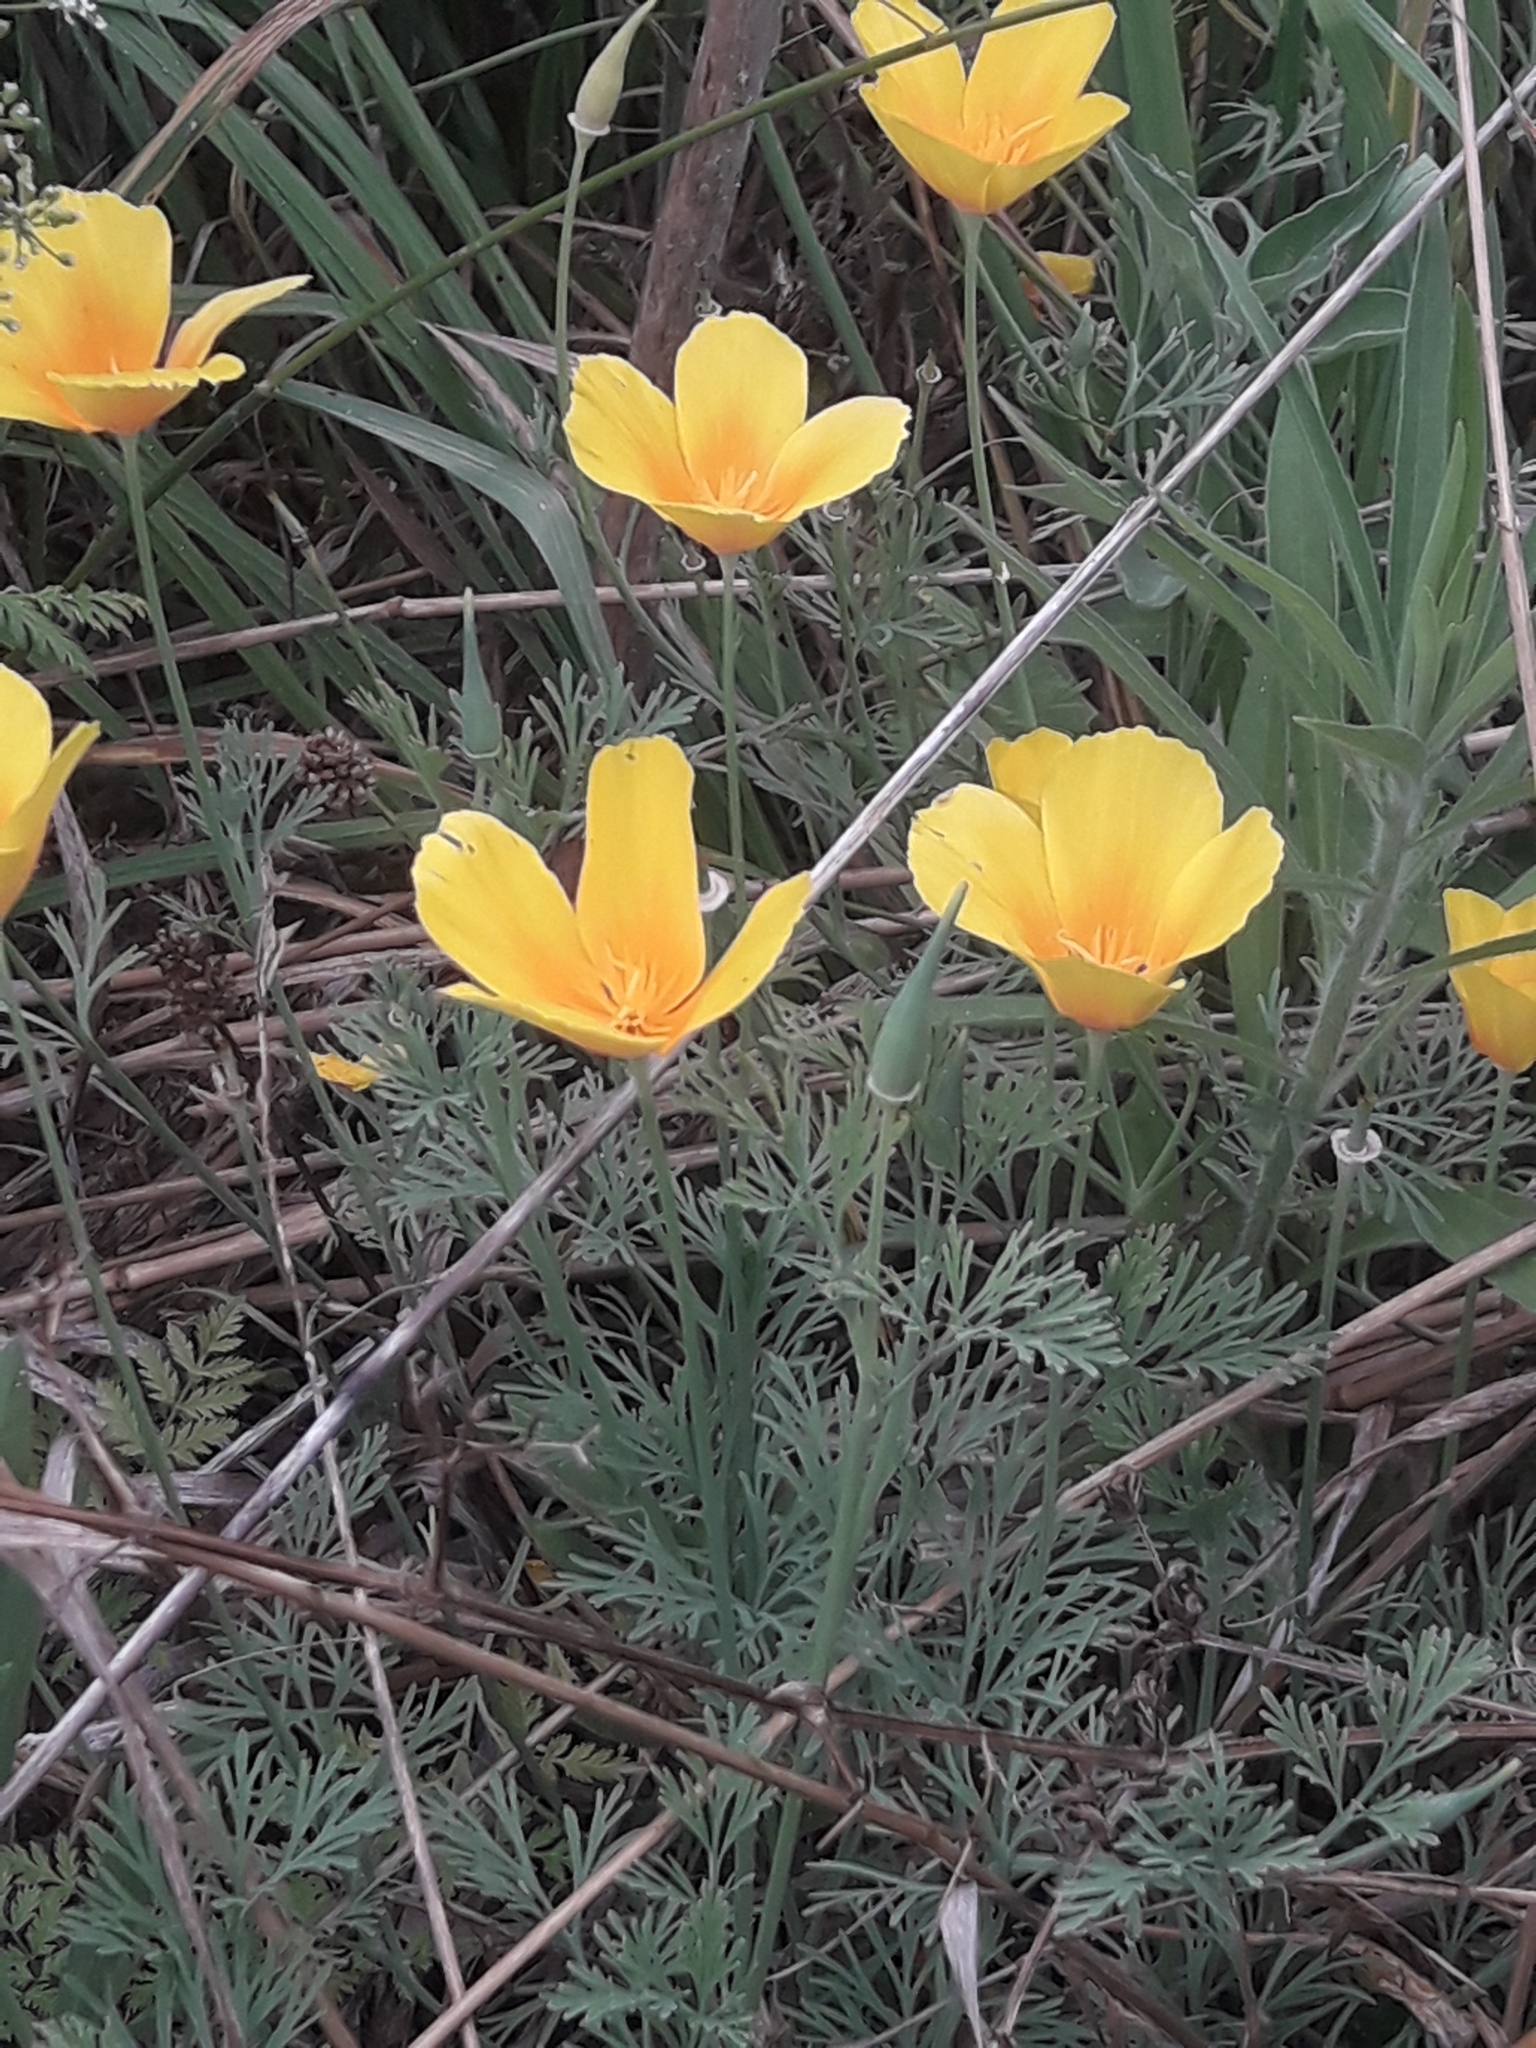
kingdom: Plantae
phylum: Tracheophyta
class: Magnoliopsida
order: Ranunculales
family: Papaveraceae
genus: Eschscholzia
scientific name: Eschscholzia californica
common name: California poppy
